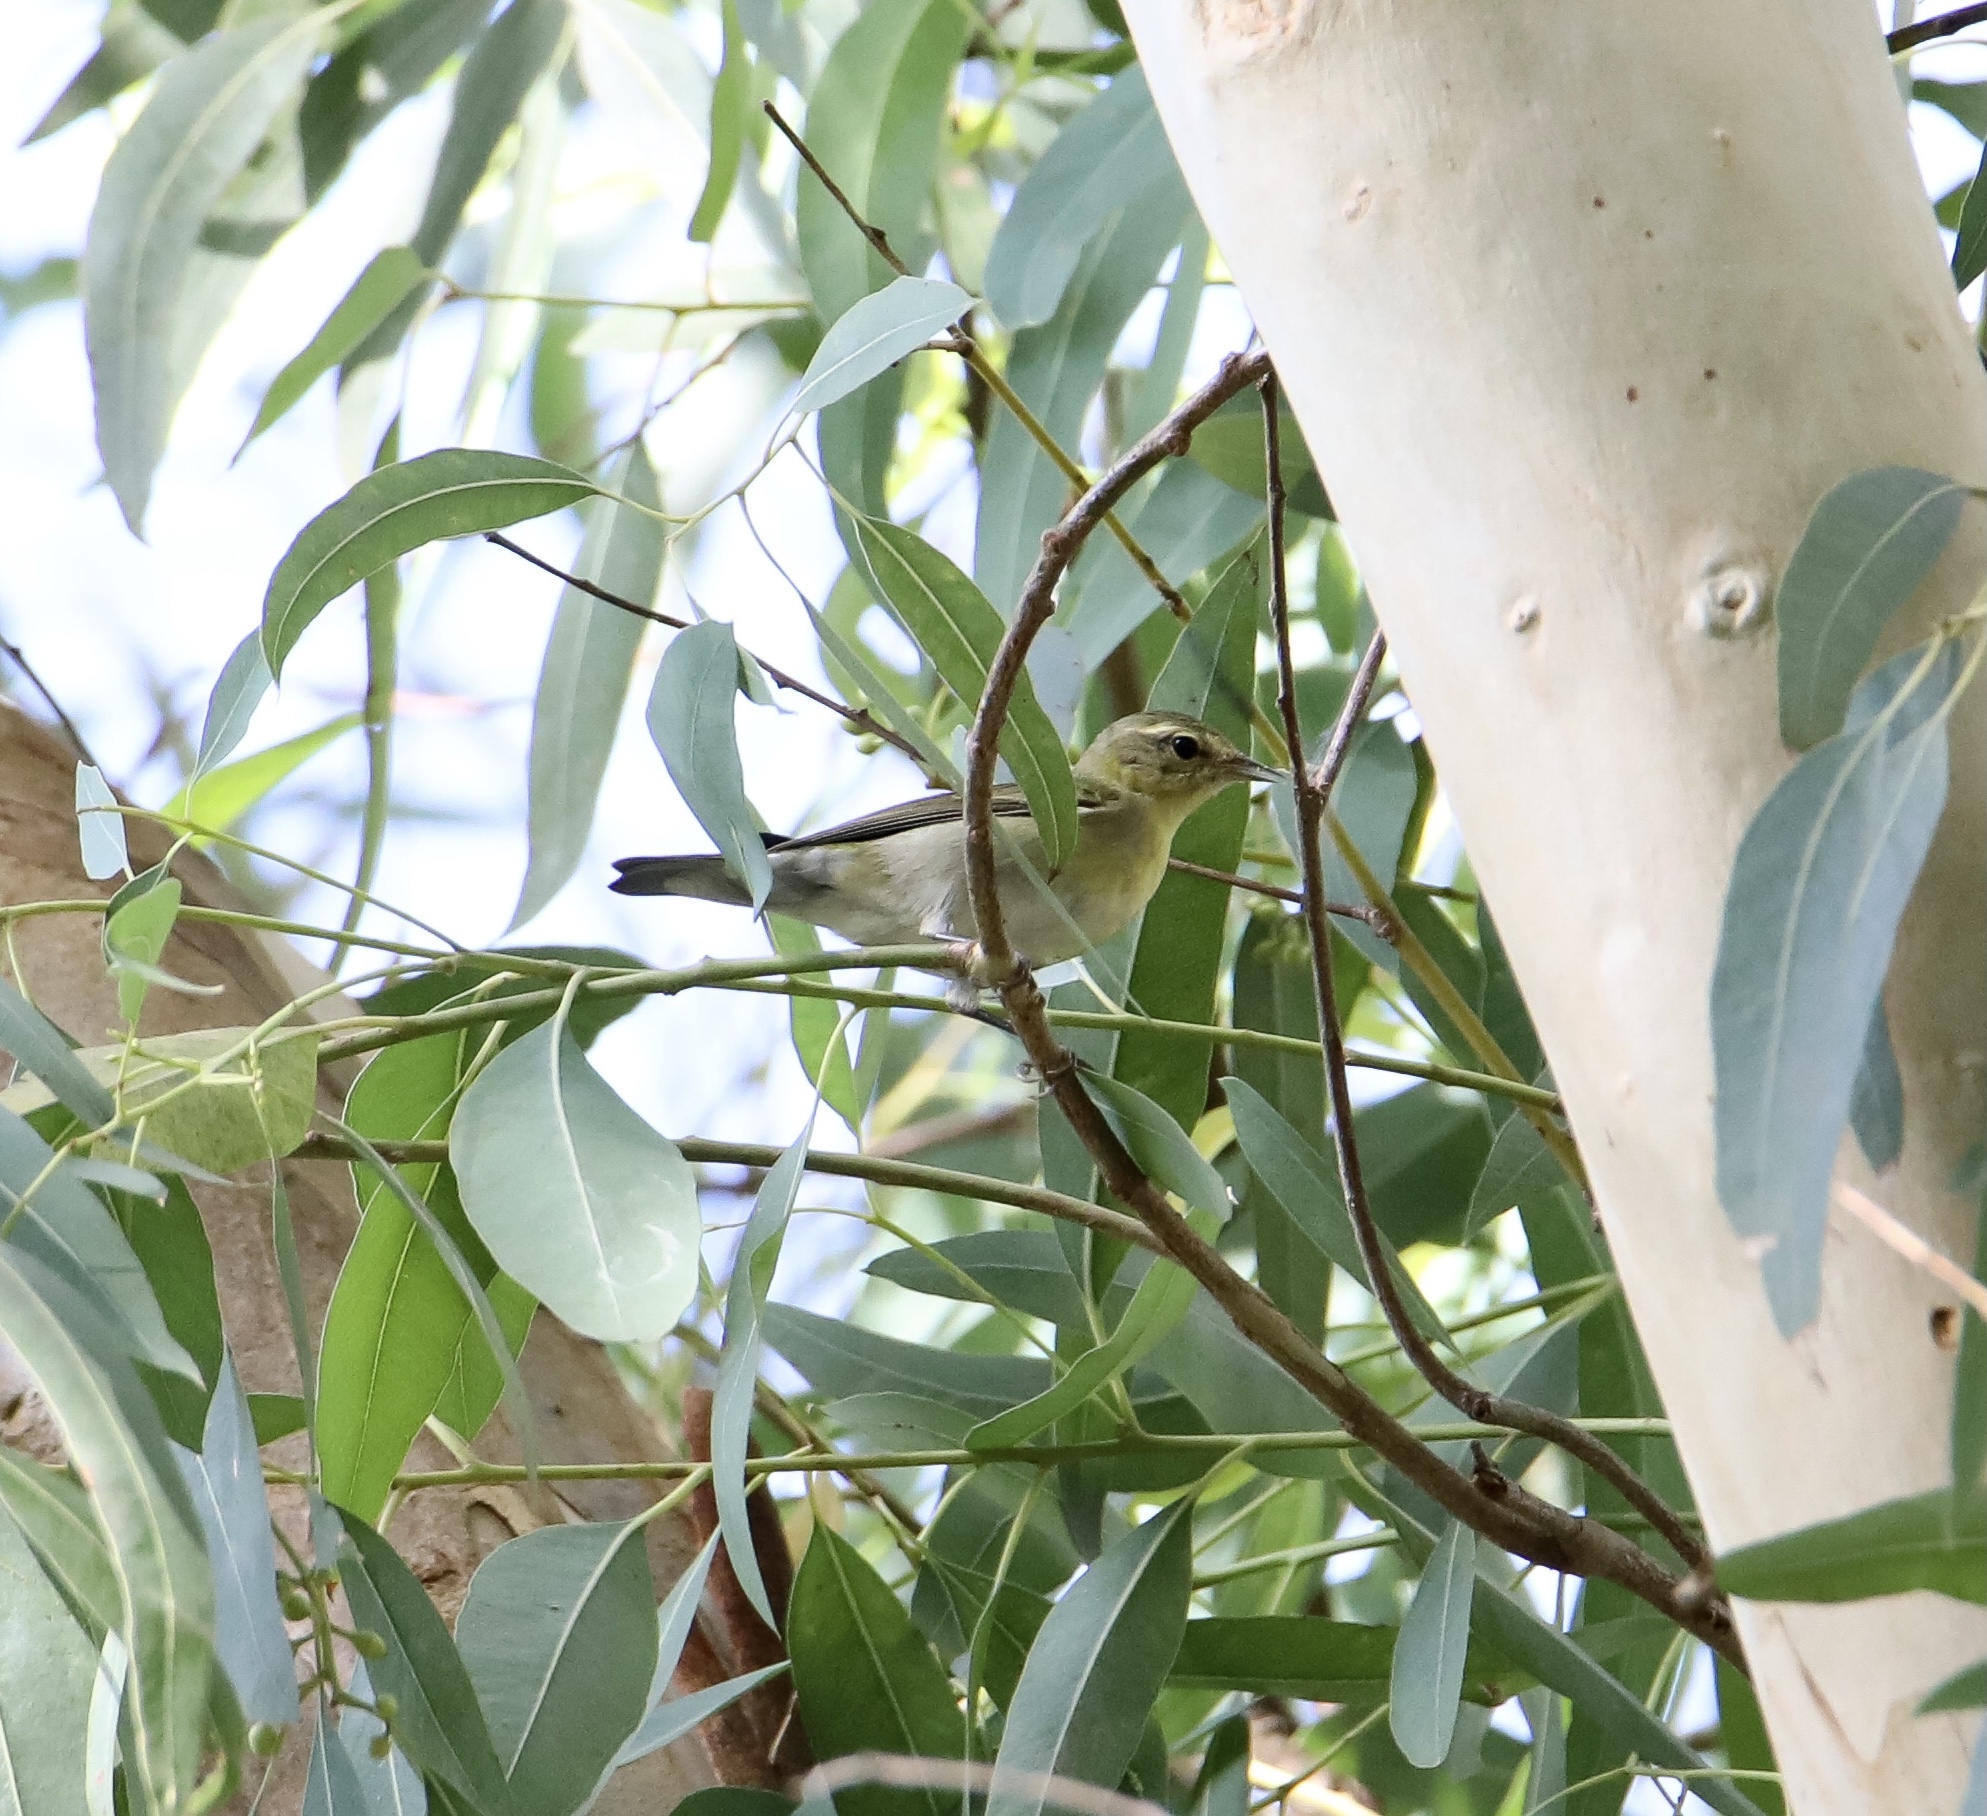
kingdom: Animalia
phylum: Chordata
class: Aves
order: Passeriformes
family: Parulidae
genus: Leiothlypis
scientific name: Leiothlypis peregrina
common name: Tennessee warbler
